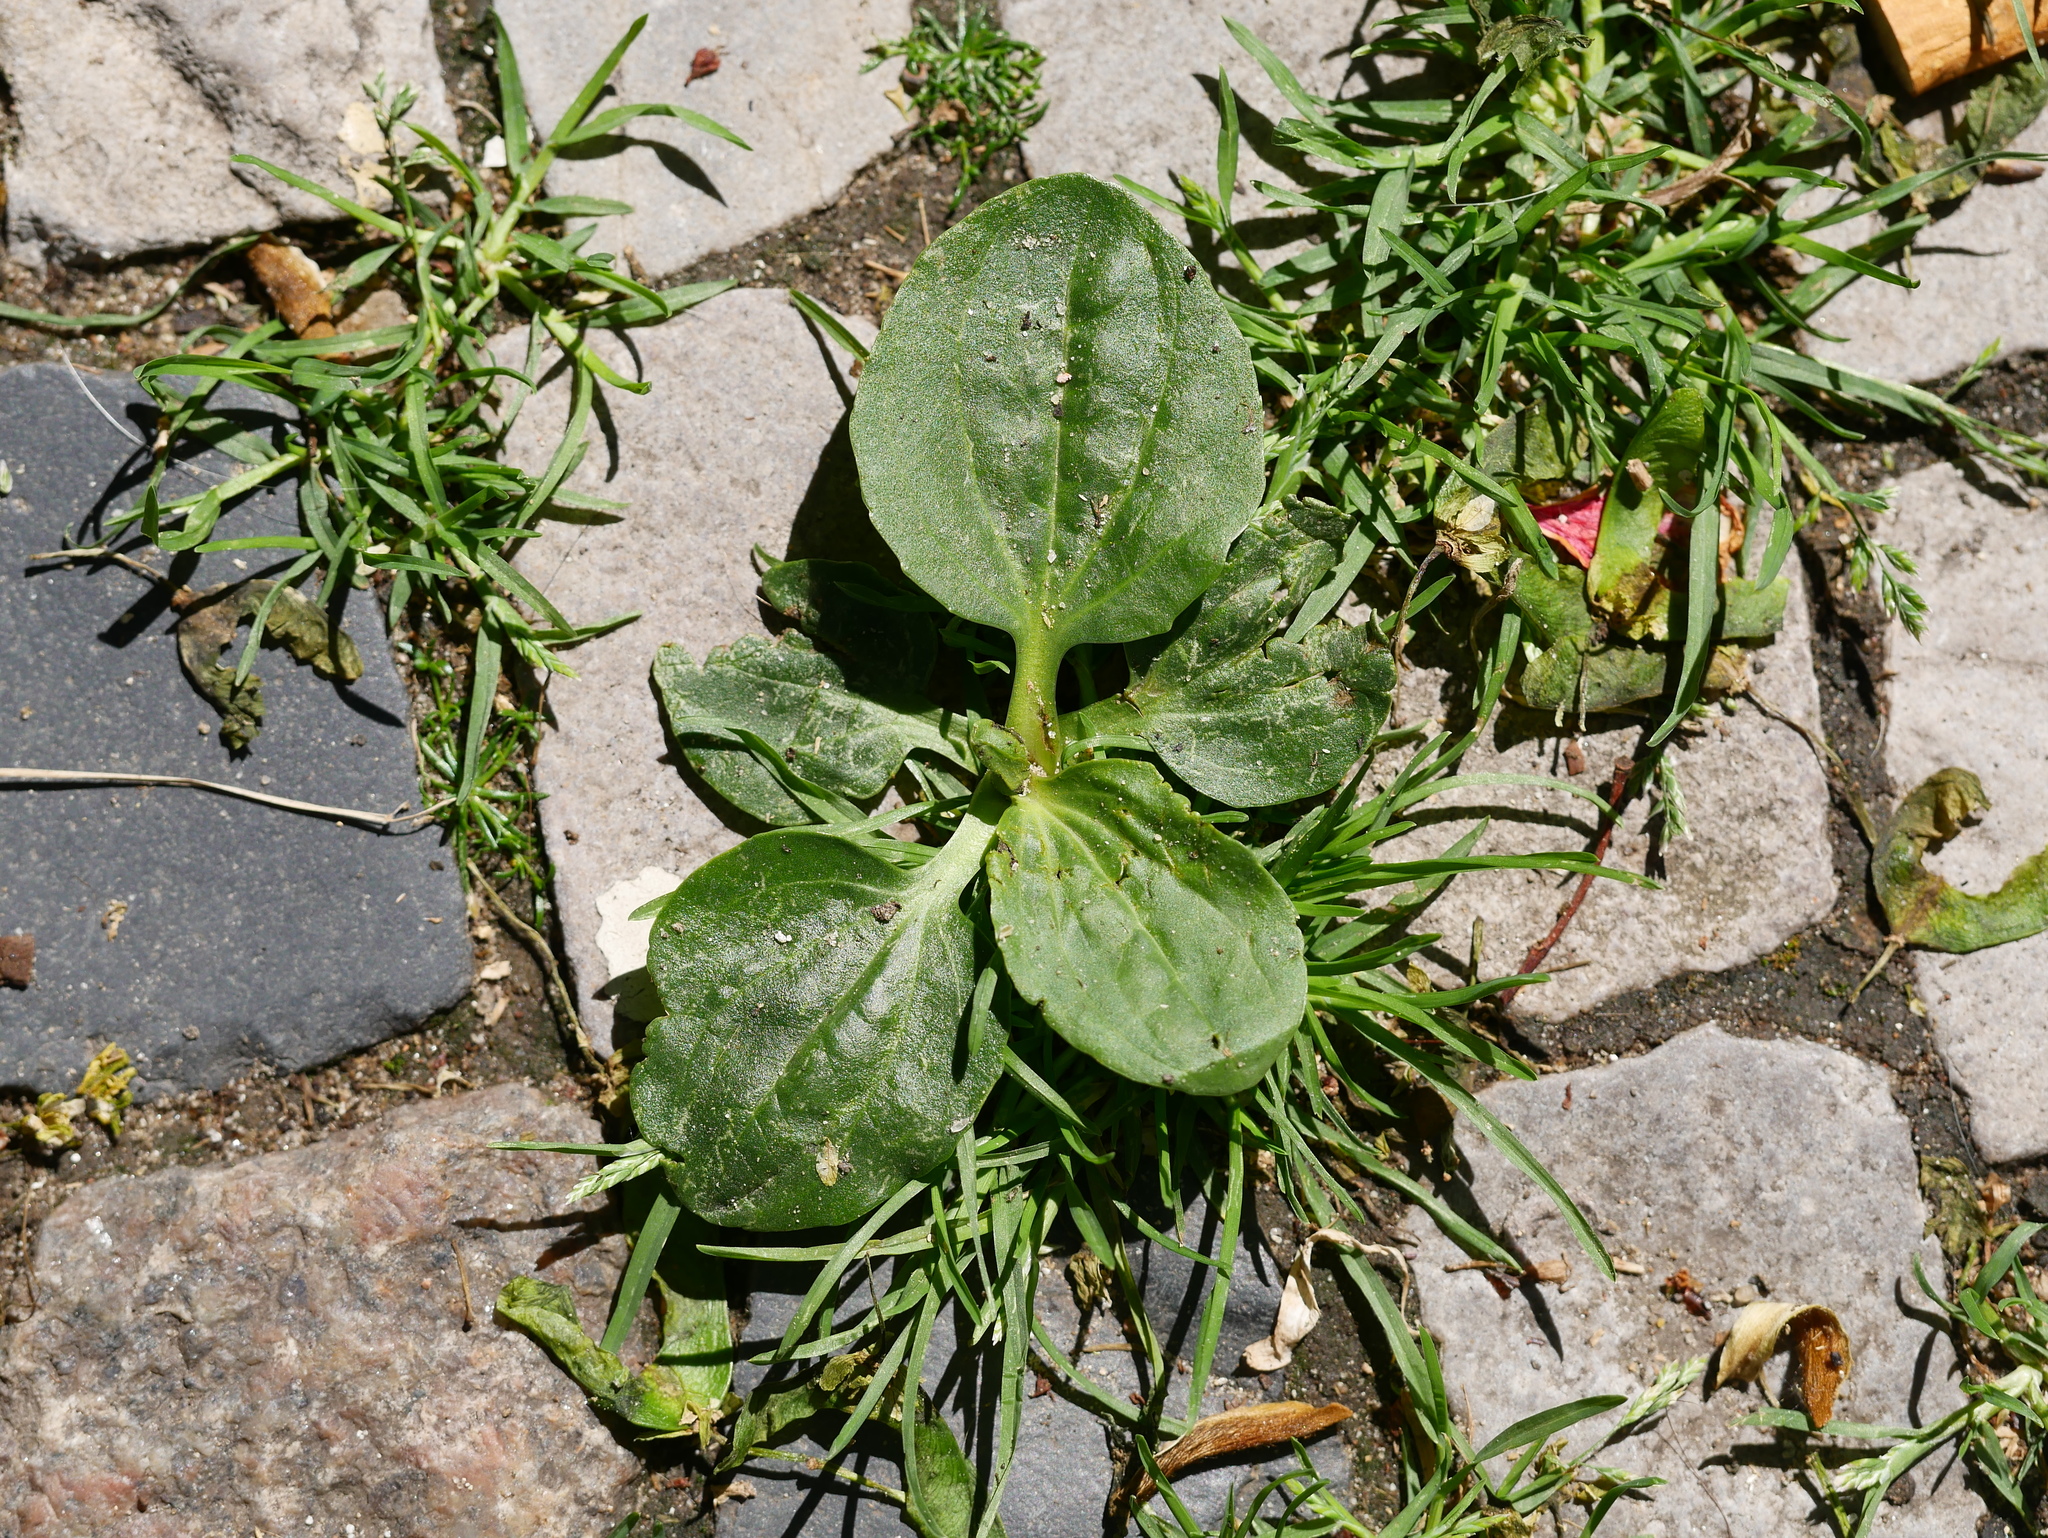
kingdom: Plantae
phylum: Tracheophyta
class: Magnoliopsida
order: Lamiales
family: Plantaginaceae
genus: Plantago
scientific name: Plantago major
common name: Common plantain
